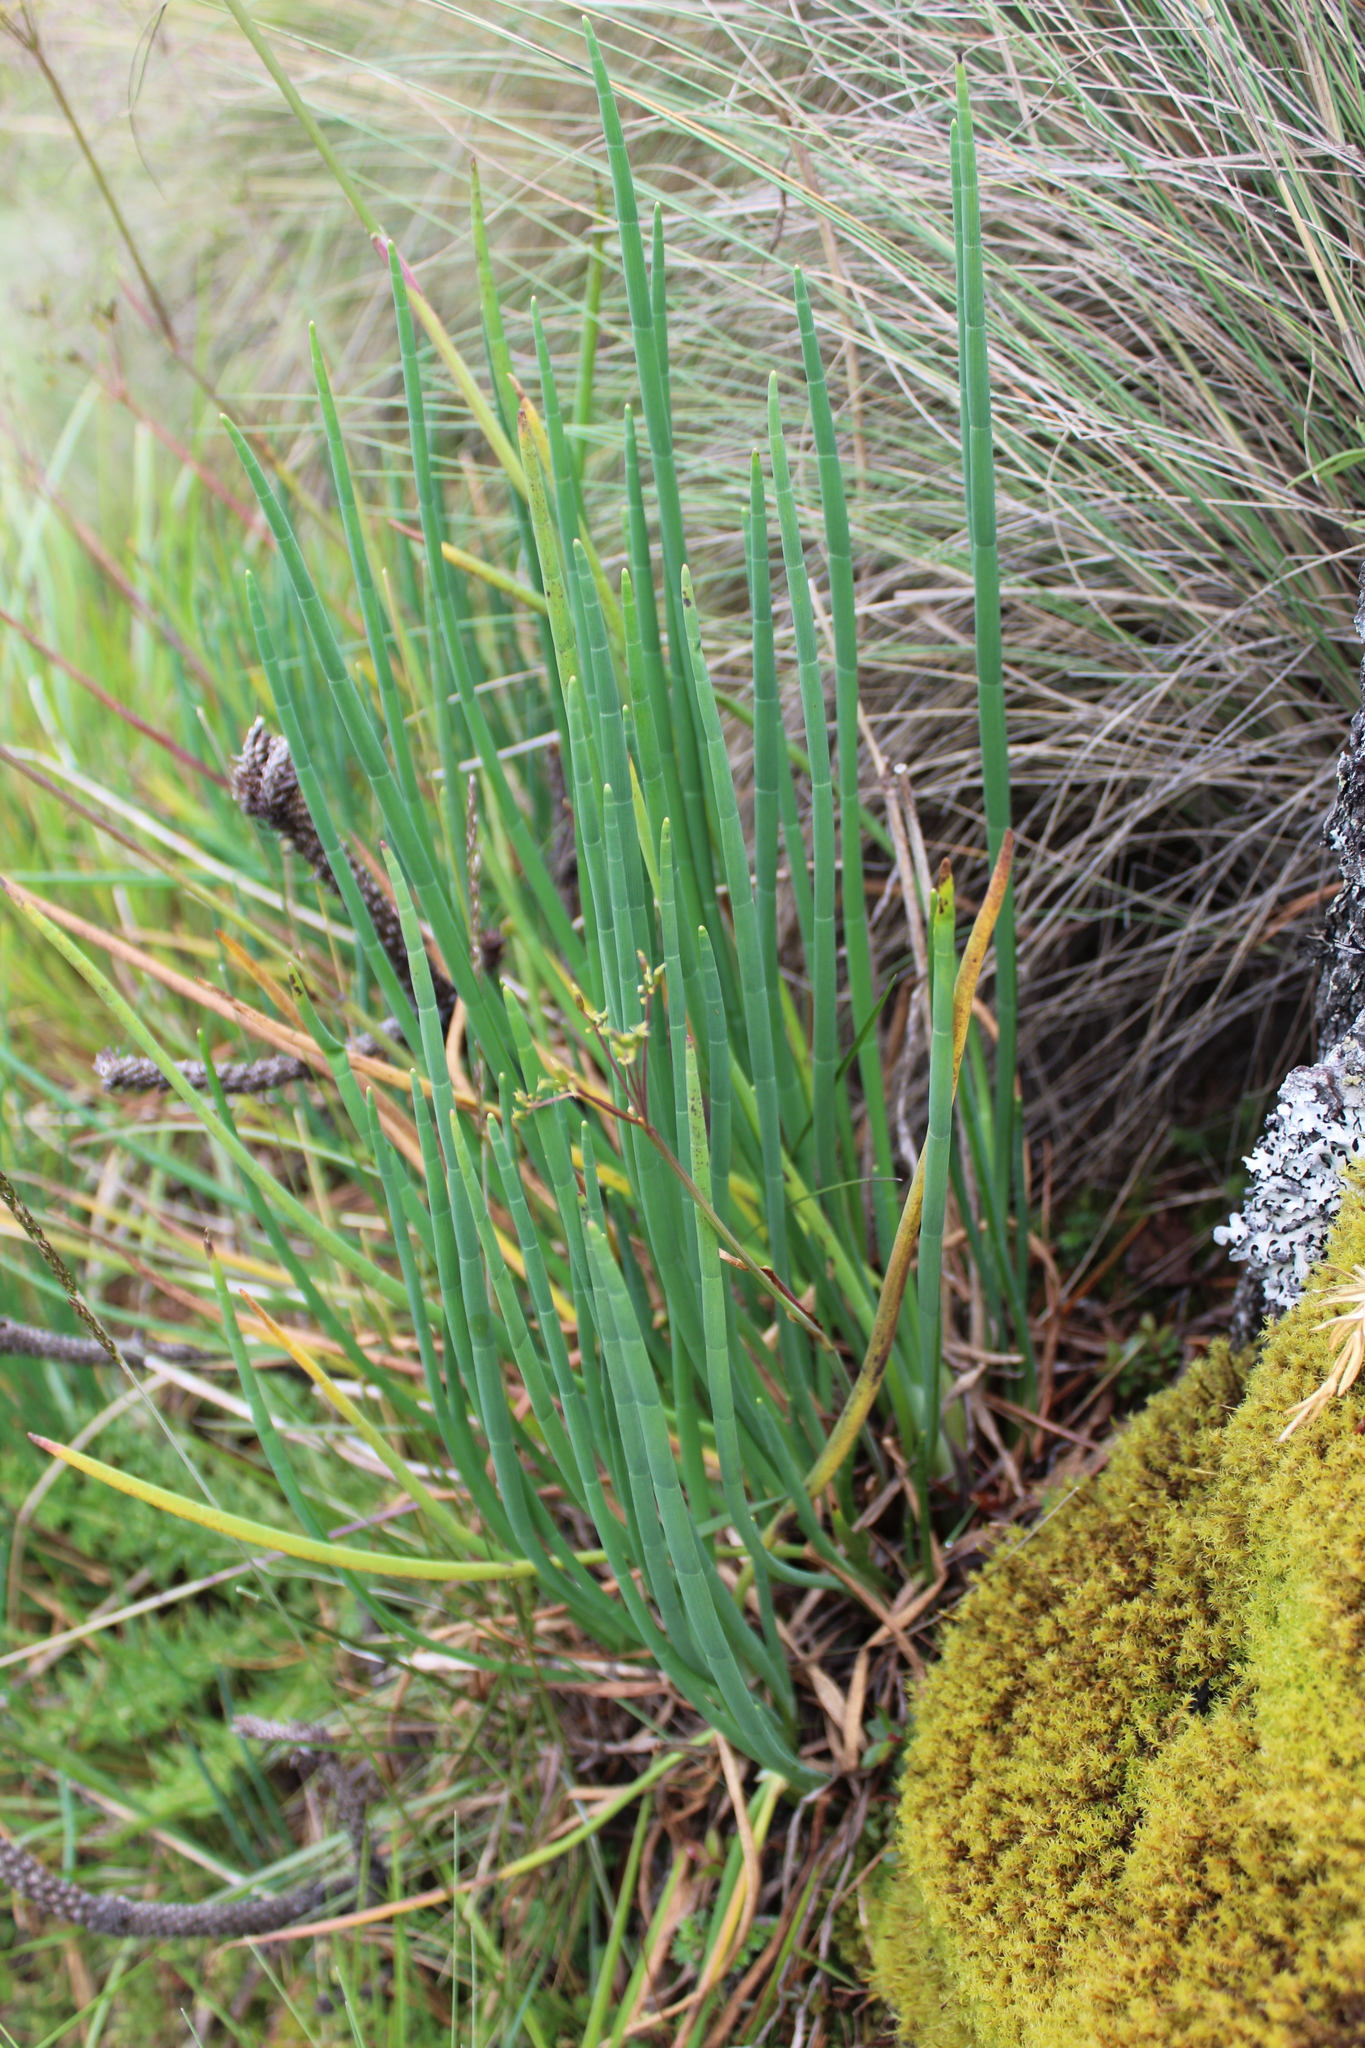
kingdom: Plantae
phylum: Tracheophyta
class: Magnoliopsida
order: Apiales
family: Apiaceae
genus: Ottoa
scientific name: Ottoa oenanthoides
